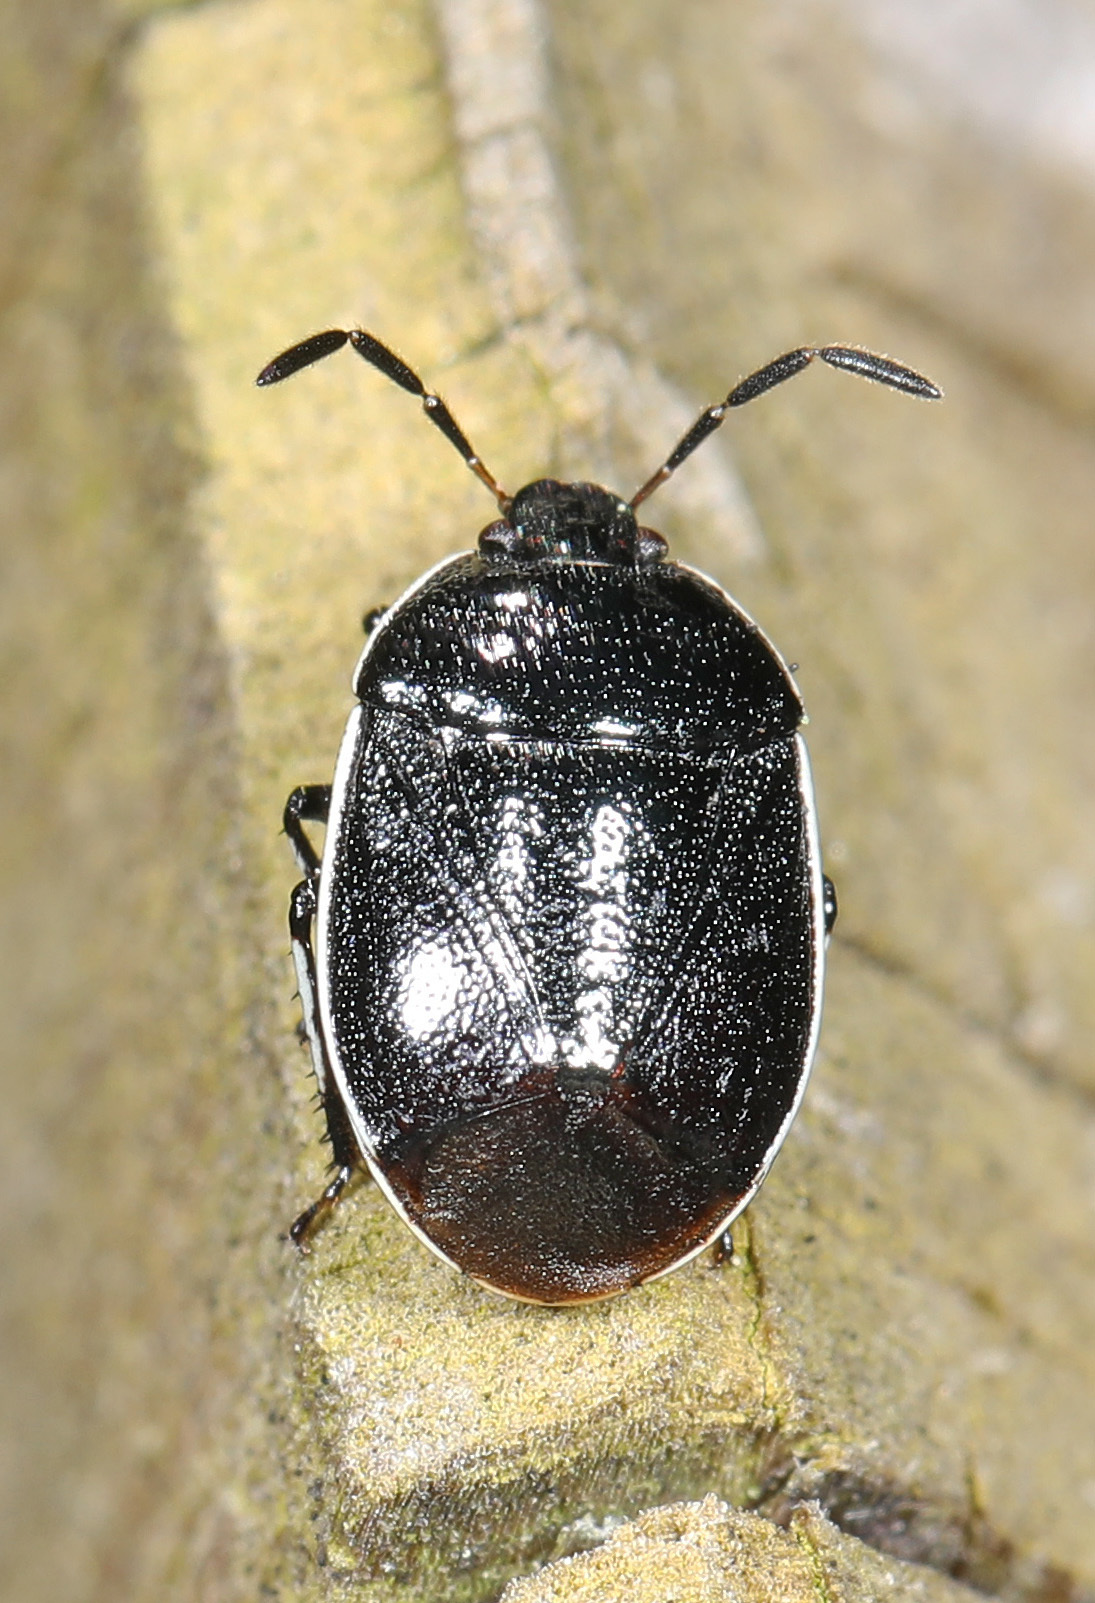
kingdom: Animalia
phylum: Arthropoda
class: Insecta
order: Hemiptera
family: Cydnidae
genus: Sehirus
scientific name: Sehirus cinctus
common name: White-margined burrower bug
